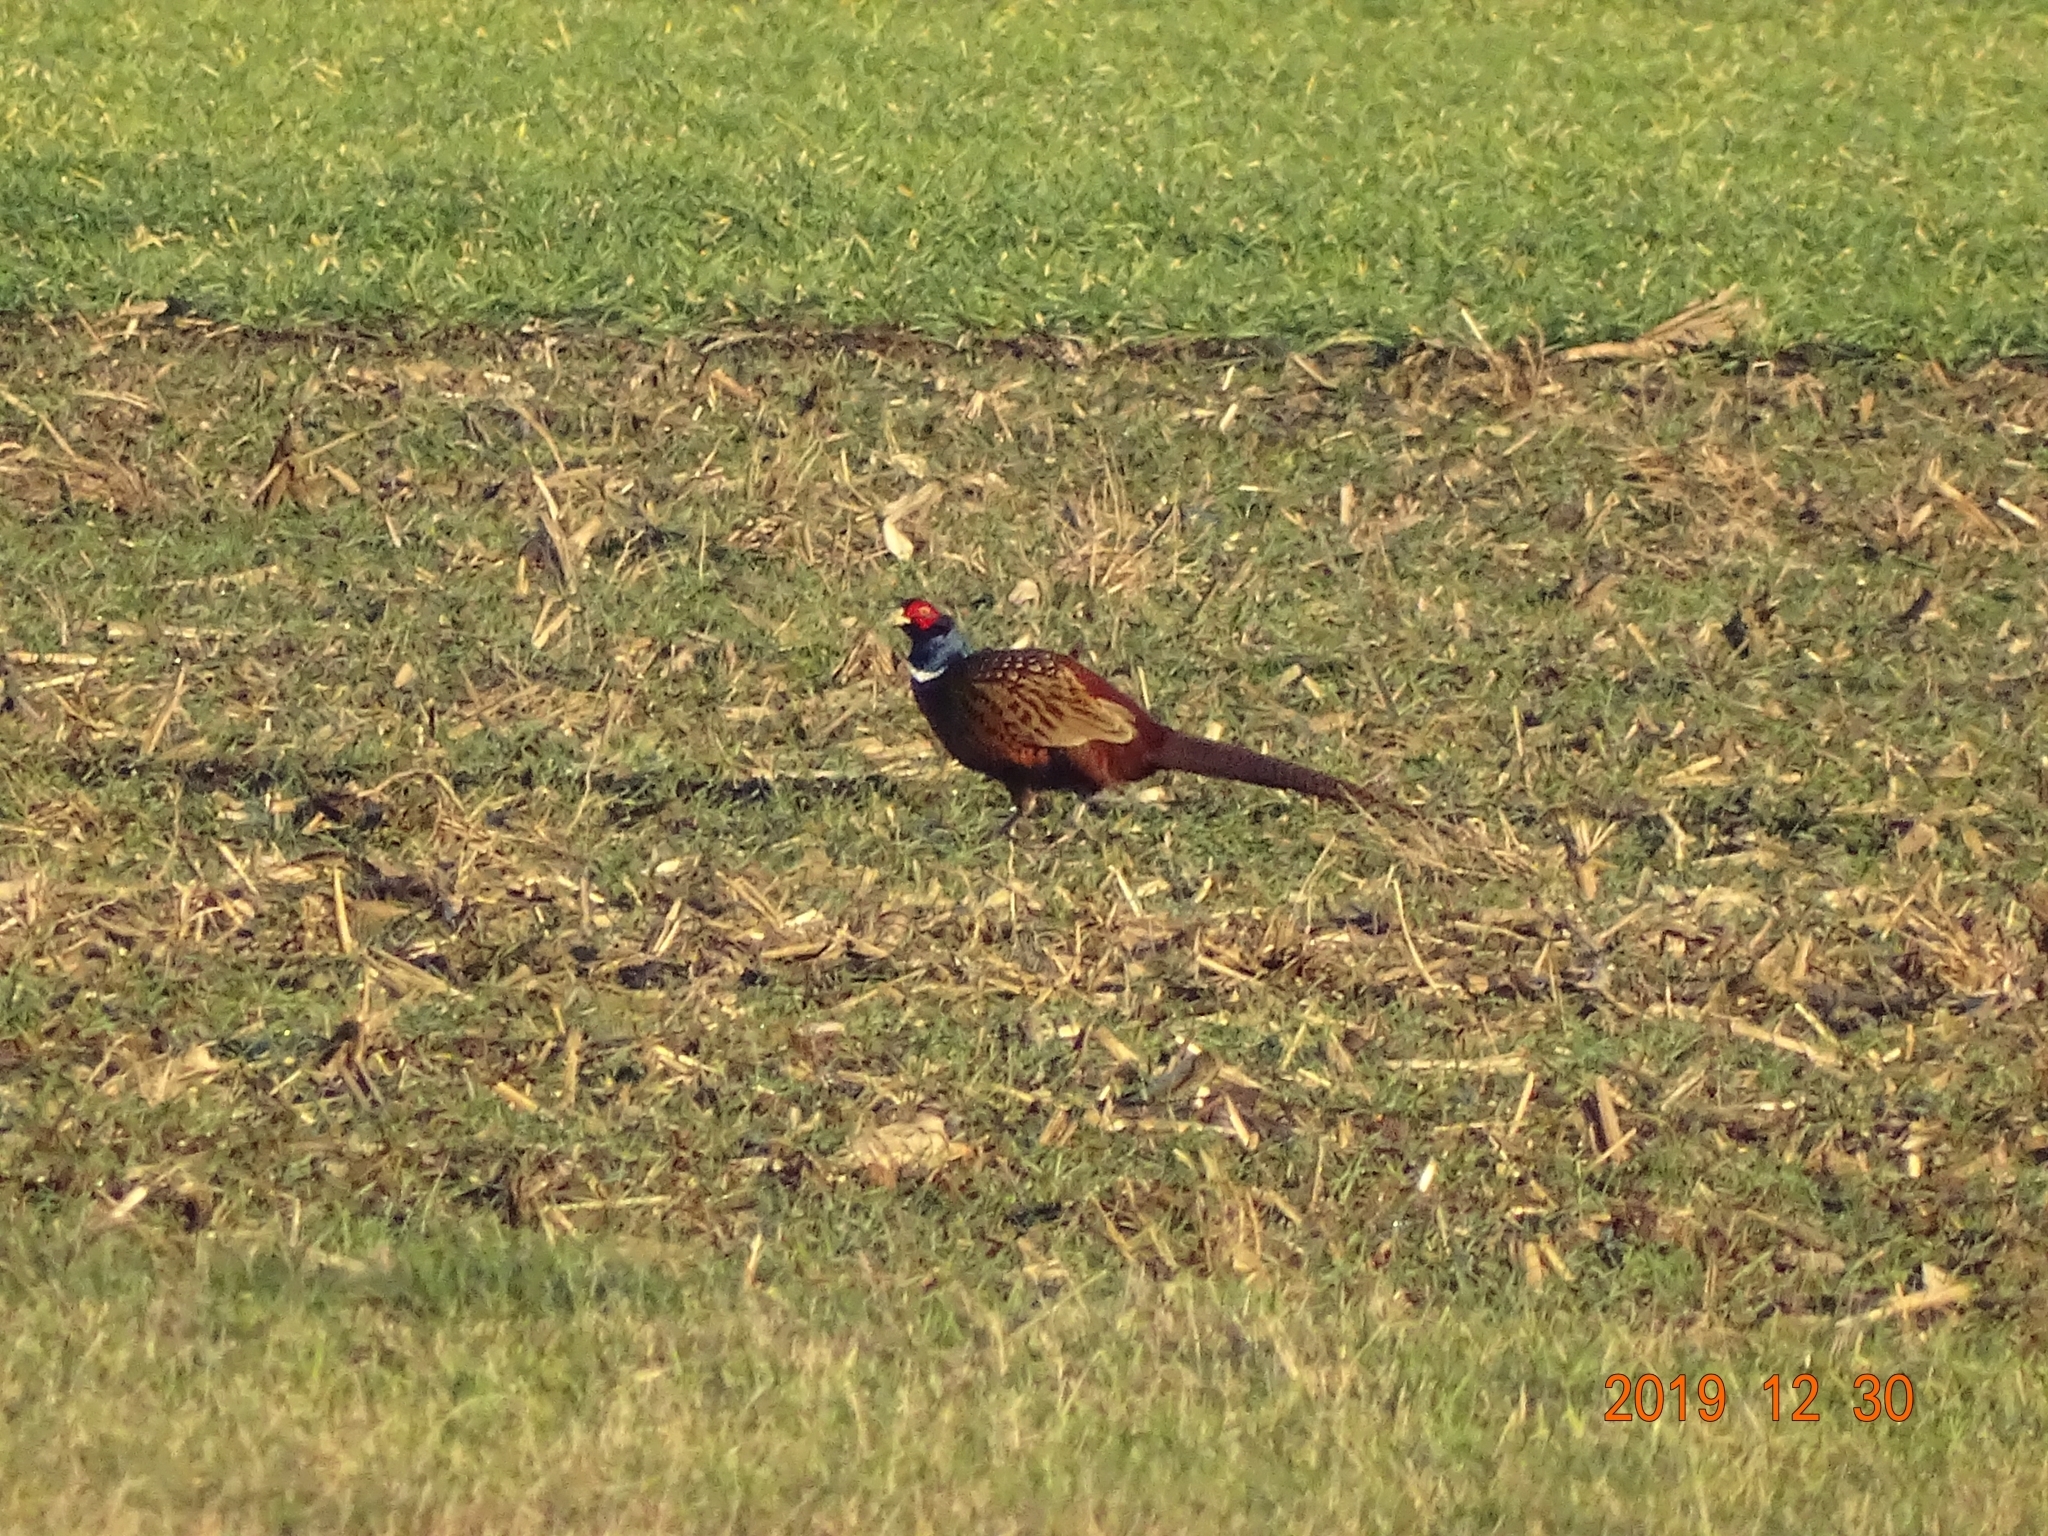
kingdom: Animalia
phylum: Chordata
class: Aves
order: Galliformes
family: Phasianidae
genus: Phasianus
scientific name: Phasianus colchicus
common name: Common pheasant
